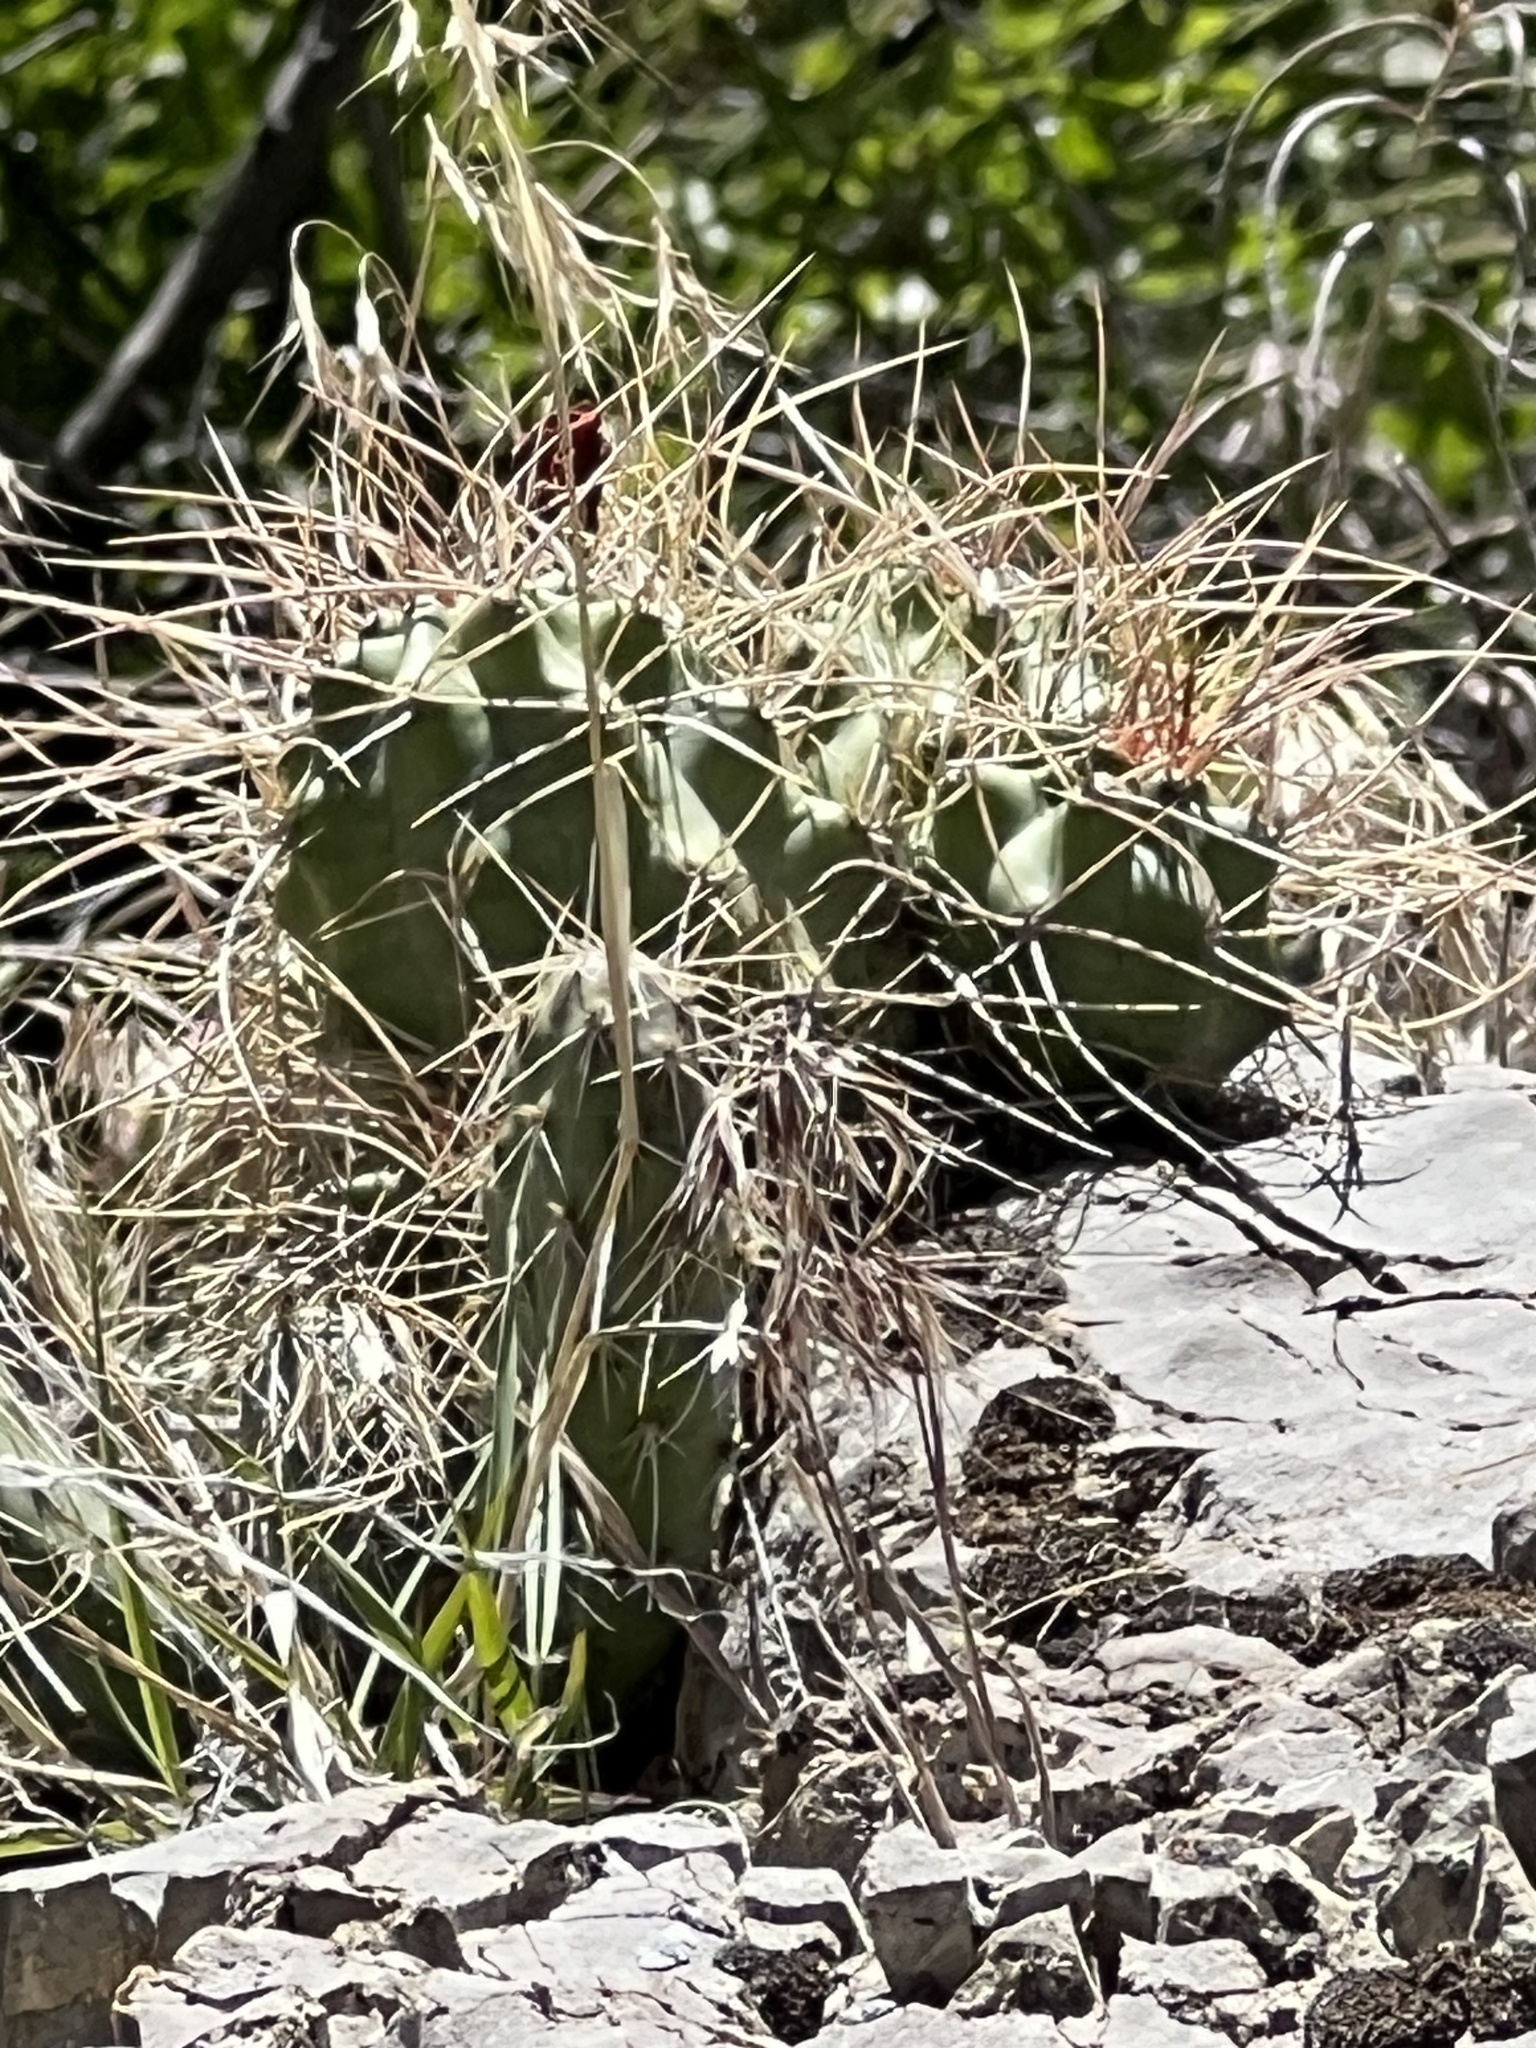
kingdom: Plantae
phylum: Tracheophyta
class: Magnoliopsida
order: Caryophyllales
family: Cactaceae
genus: Echinocereus
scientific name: Echinocereus triglochidiatus
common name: Claretcup hedgehog
